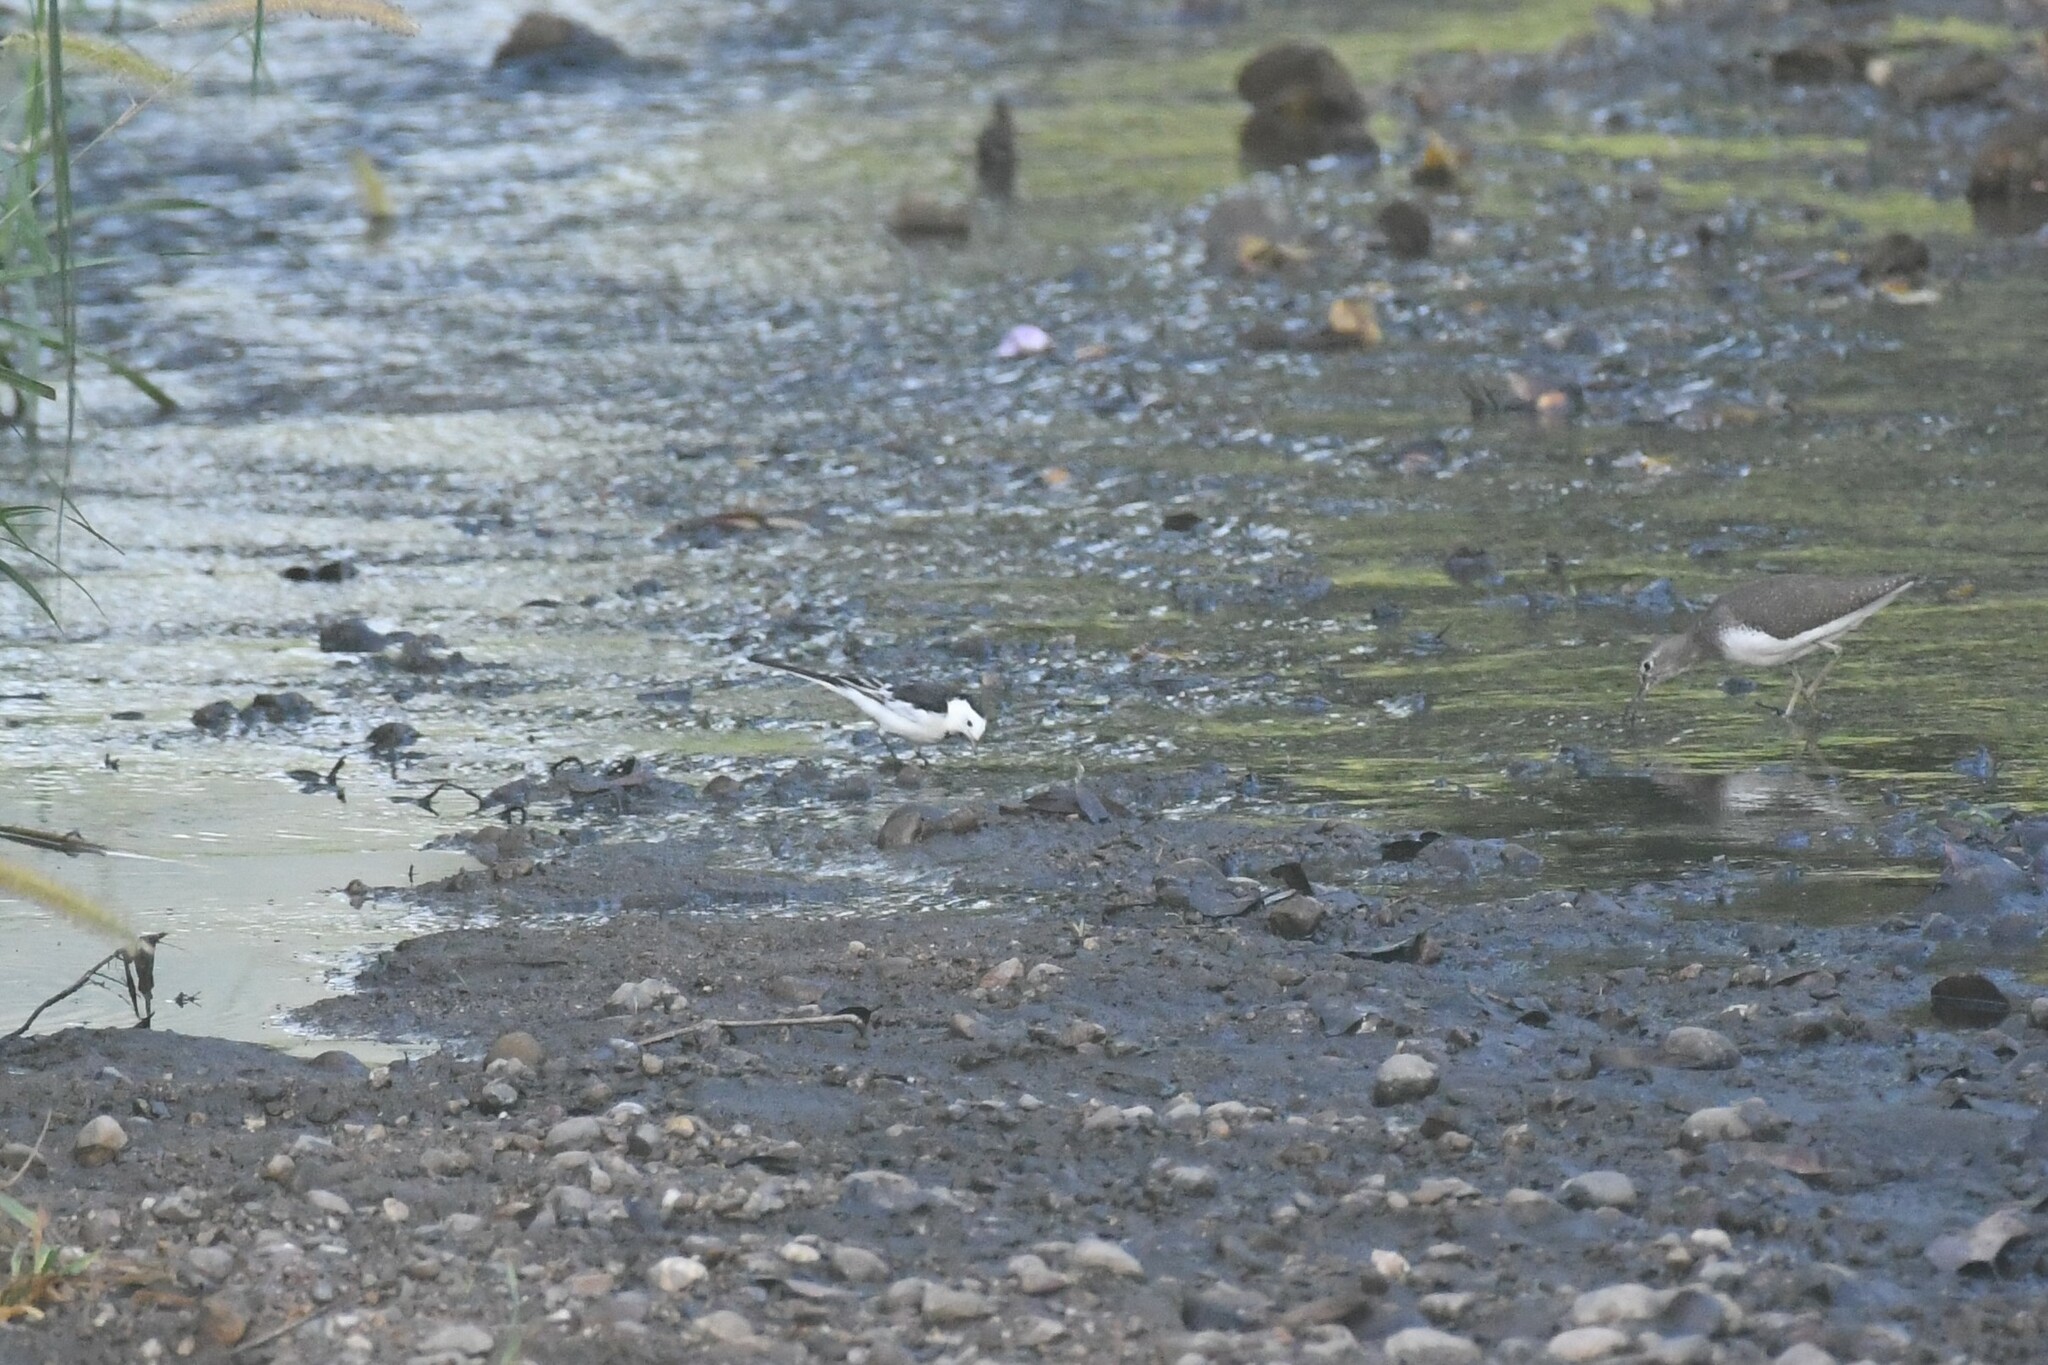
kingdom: Animalia
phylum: Chordata
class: Aves
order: Passeriformes
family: Motacillidae
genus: Motacilla
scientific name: Motacilla alba
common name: White wagtail
